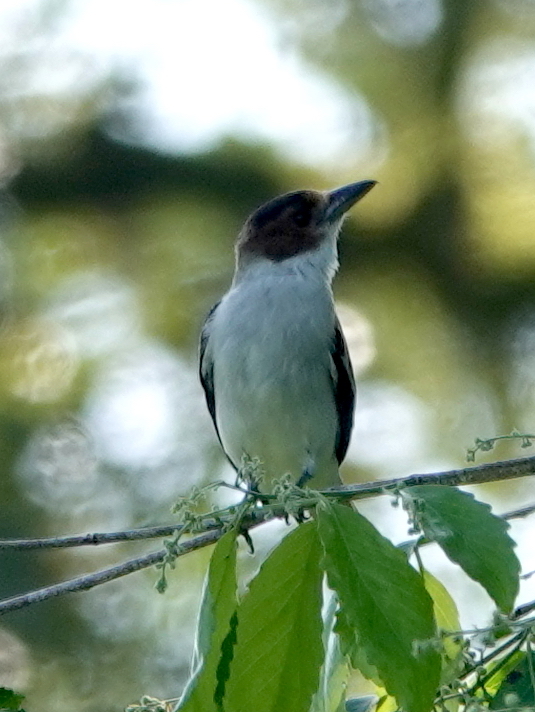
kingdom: Animalia
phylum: Chordata
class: Aves
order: Passeriformes
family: Cotingidae
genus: Tityra
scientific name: Tityra inquisitor
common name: Black-crowned tityra
